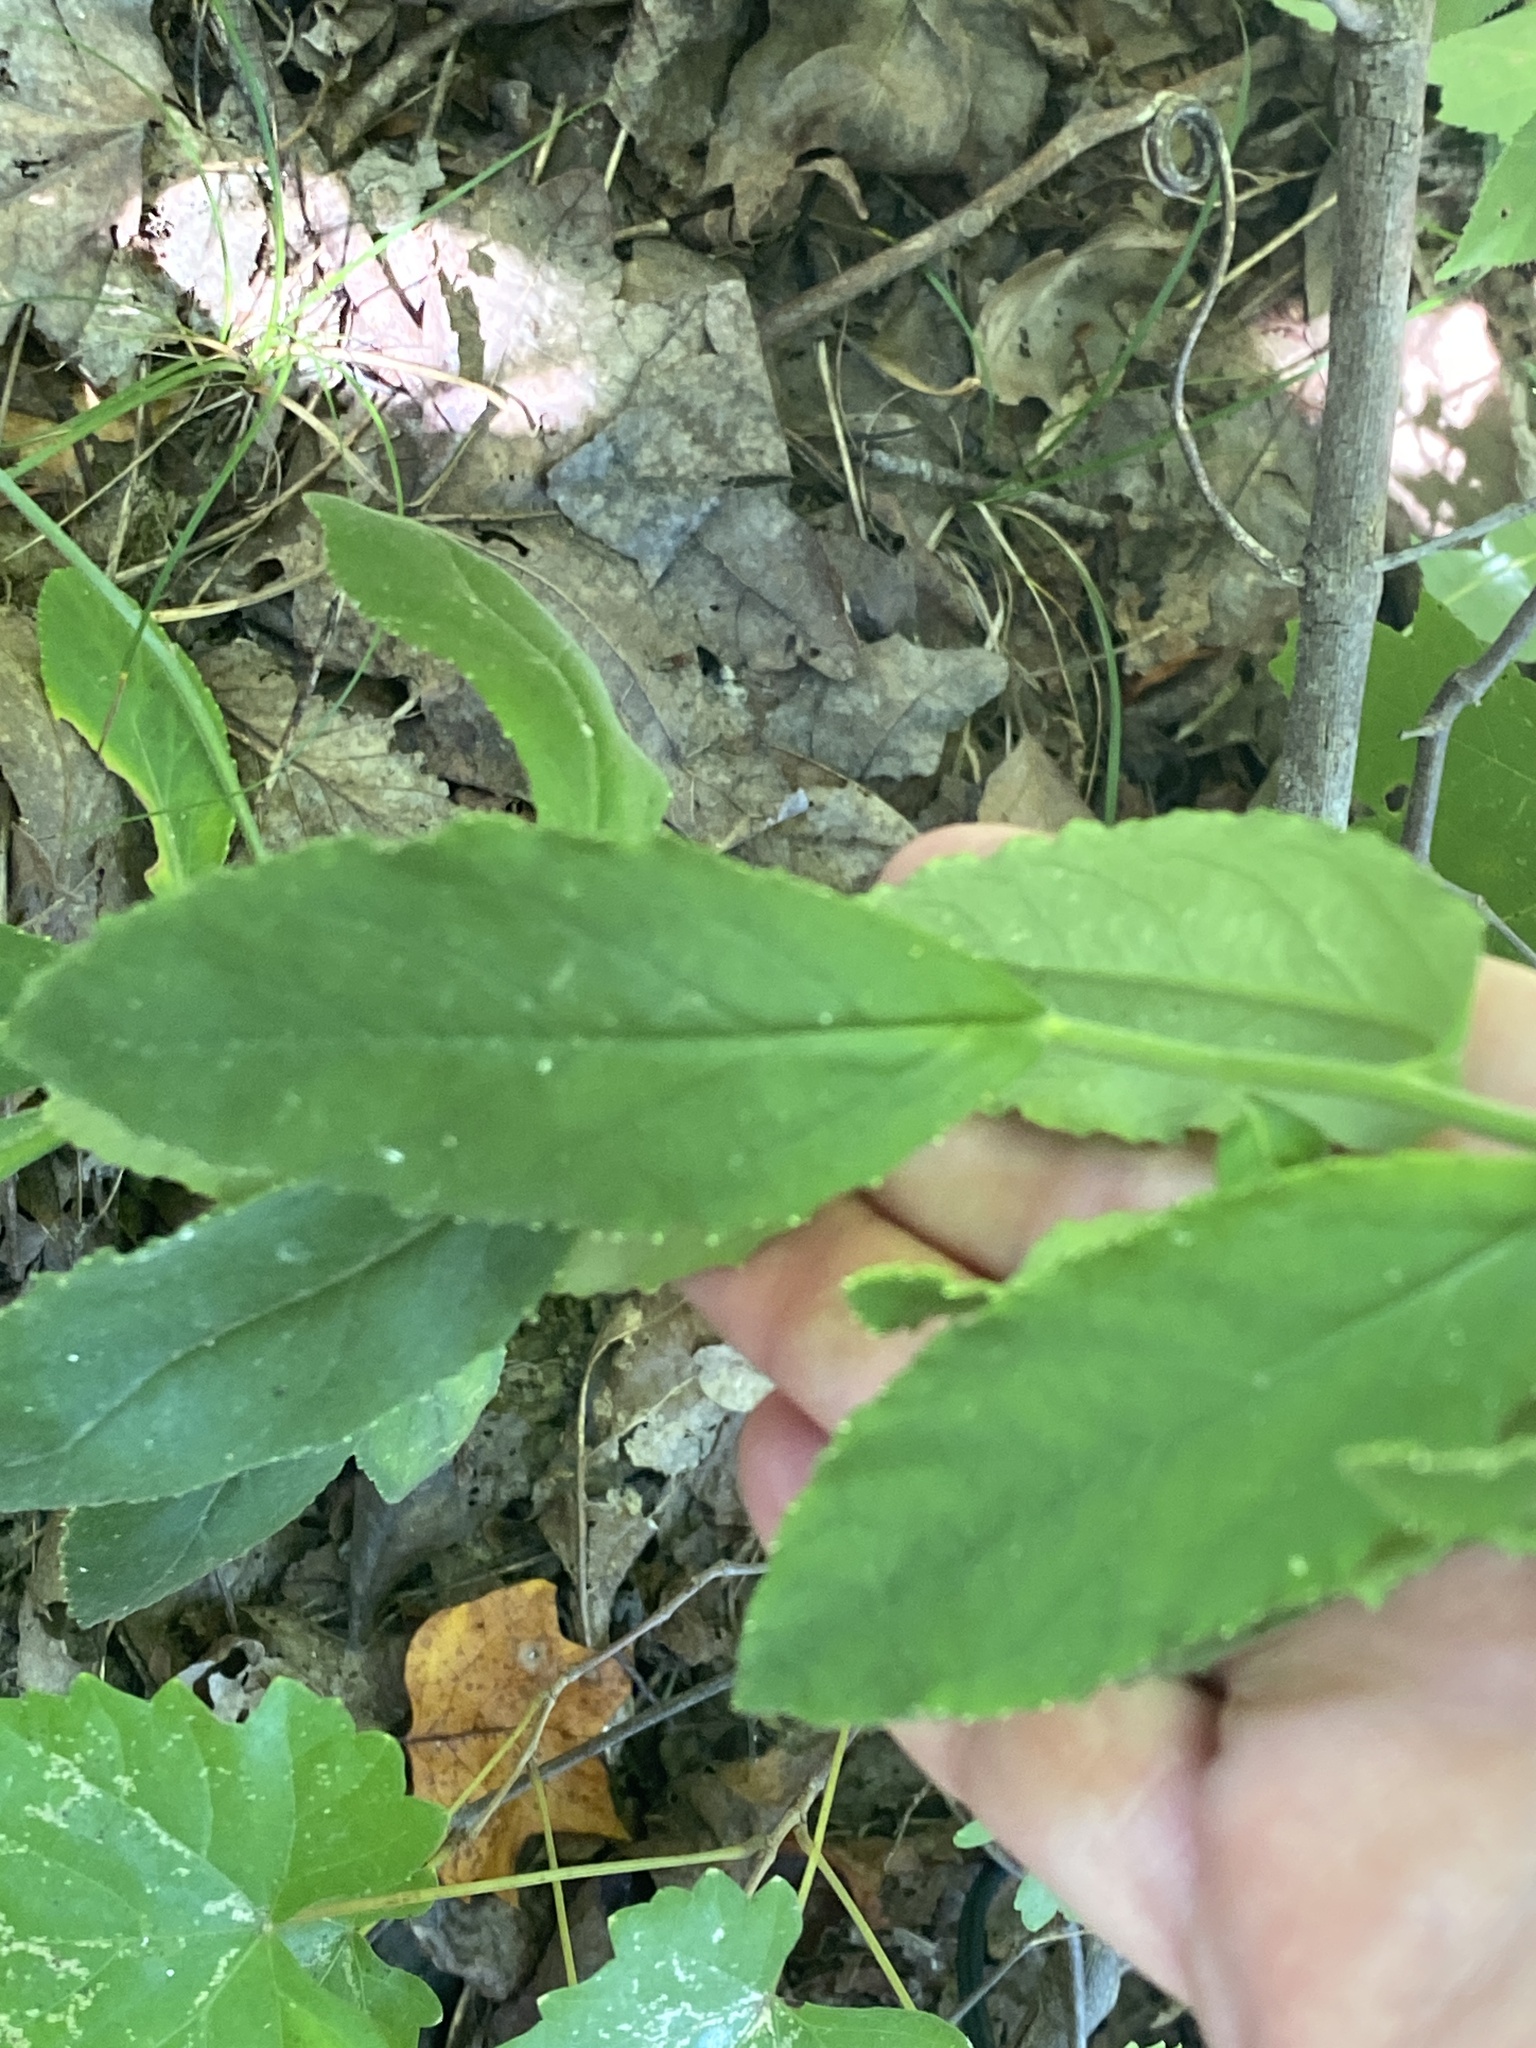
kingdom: Plantae
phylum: Tracheophyta
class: Magnoliopsida
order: Asterales
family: Campanulaceae
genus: Lobelia
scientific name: Lobelia puberula
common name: Purple dewdrop
